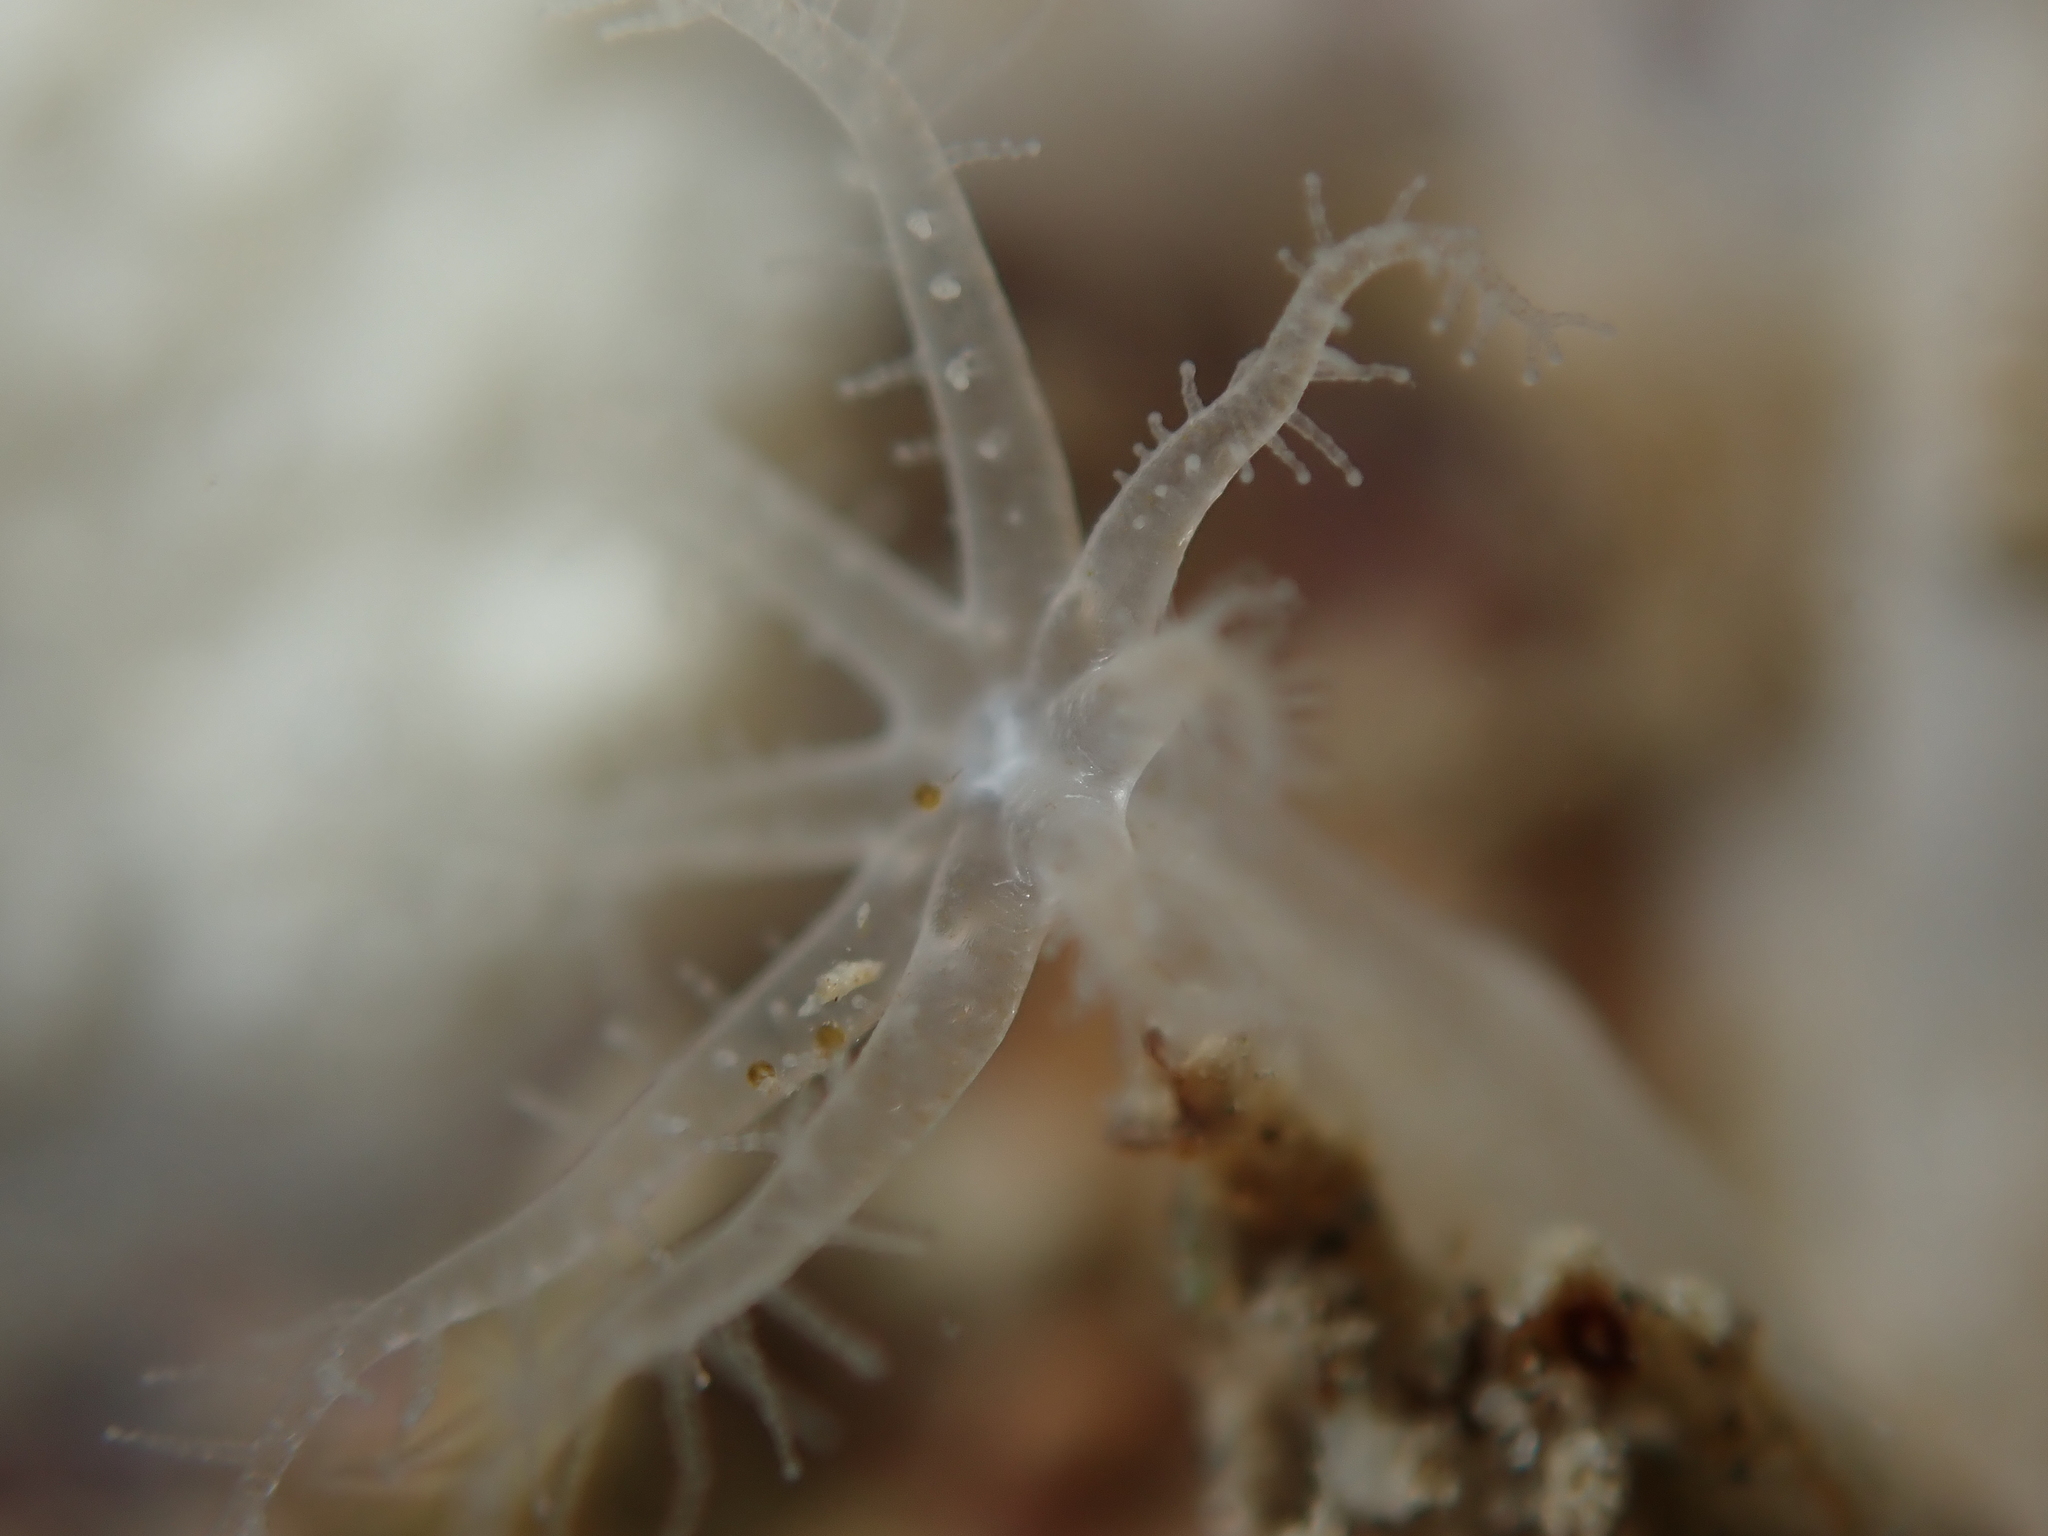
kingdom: Animalia
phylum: Cnidaria
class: Anthozoa
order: Malacalcyonacea
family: Clavulariidae
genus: Clavularia
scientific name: Clavularia novaezealandiae
